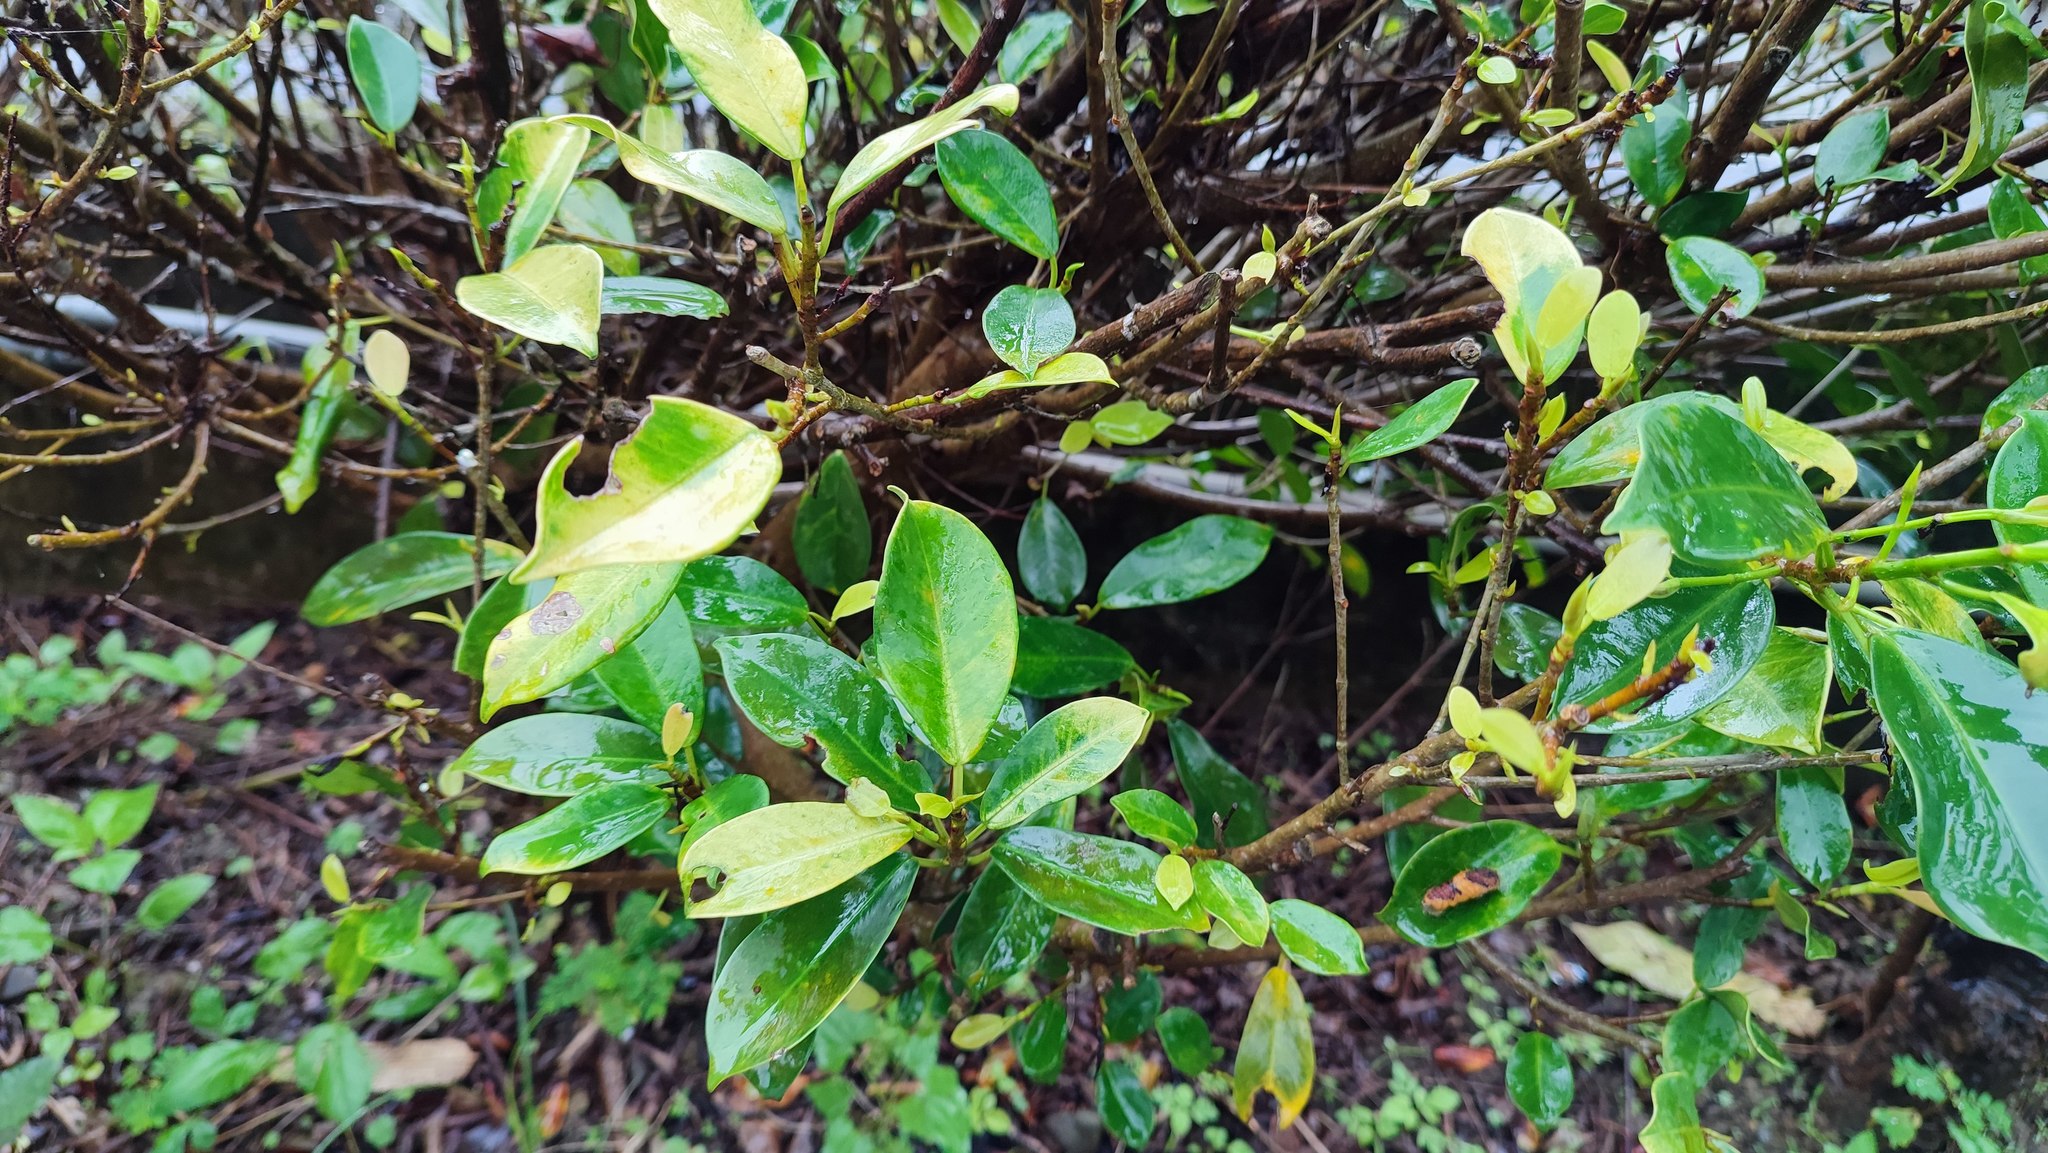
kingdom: Plantae
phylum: Tracheophyta
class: Magnoliopsida
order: Rosales
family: Moraceae
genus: Ficus
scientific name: Ficus microcarpa
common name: Chinese banyan
